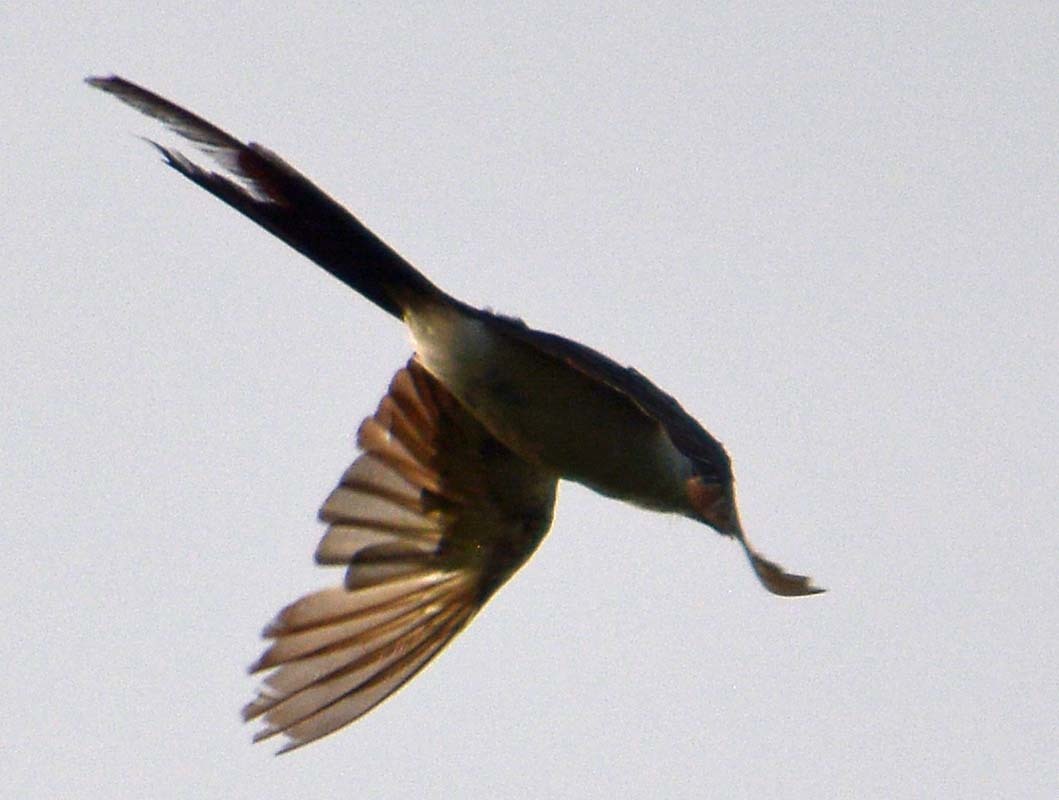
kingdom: Animalia
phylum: Chordata
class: Aves
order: Passeriformes
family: Tyrannidae
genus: Tyrannus
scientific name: Tyrannus savana
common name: Fork-tailed flycatcher
